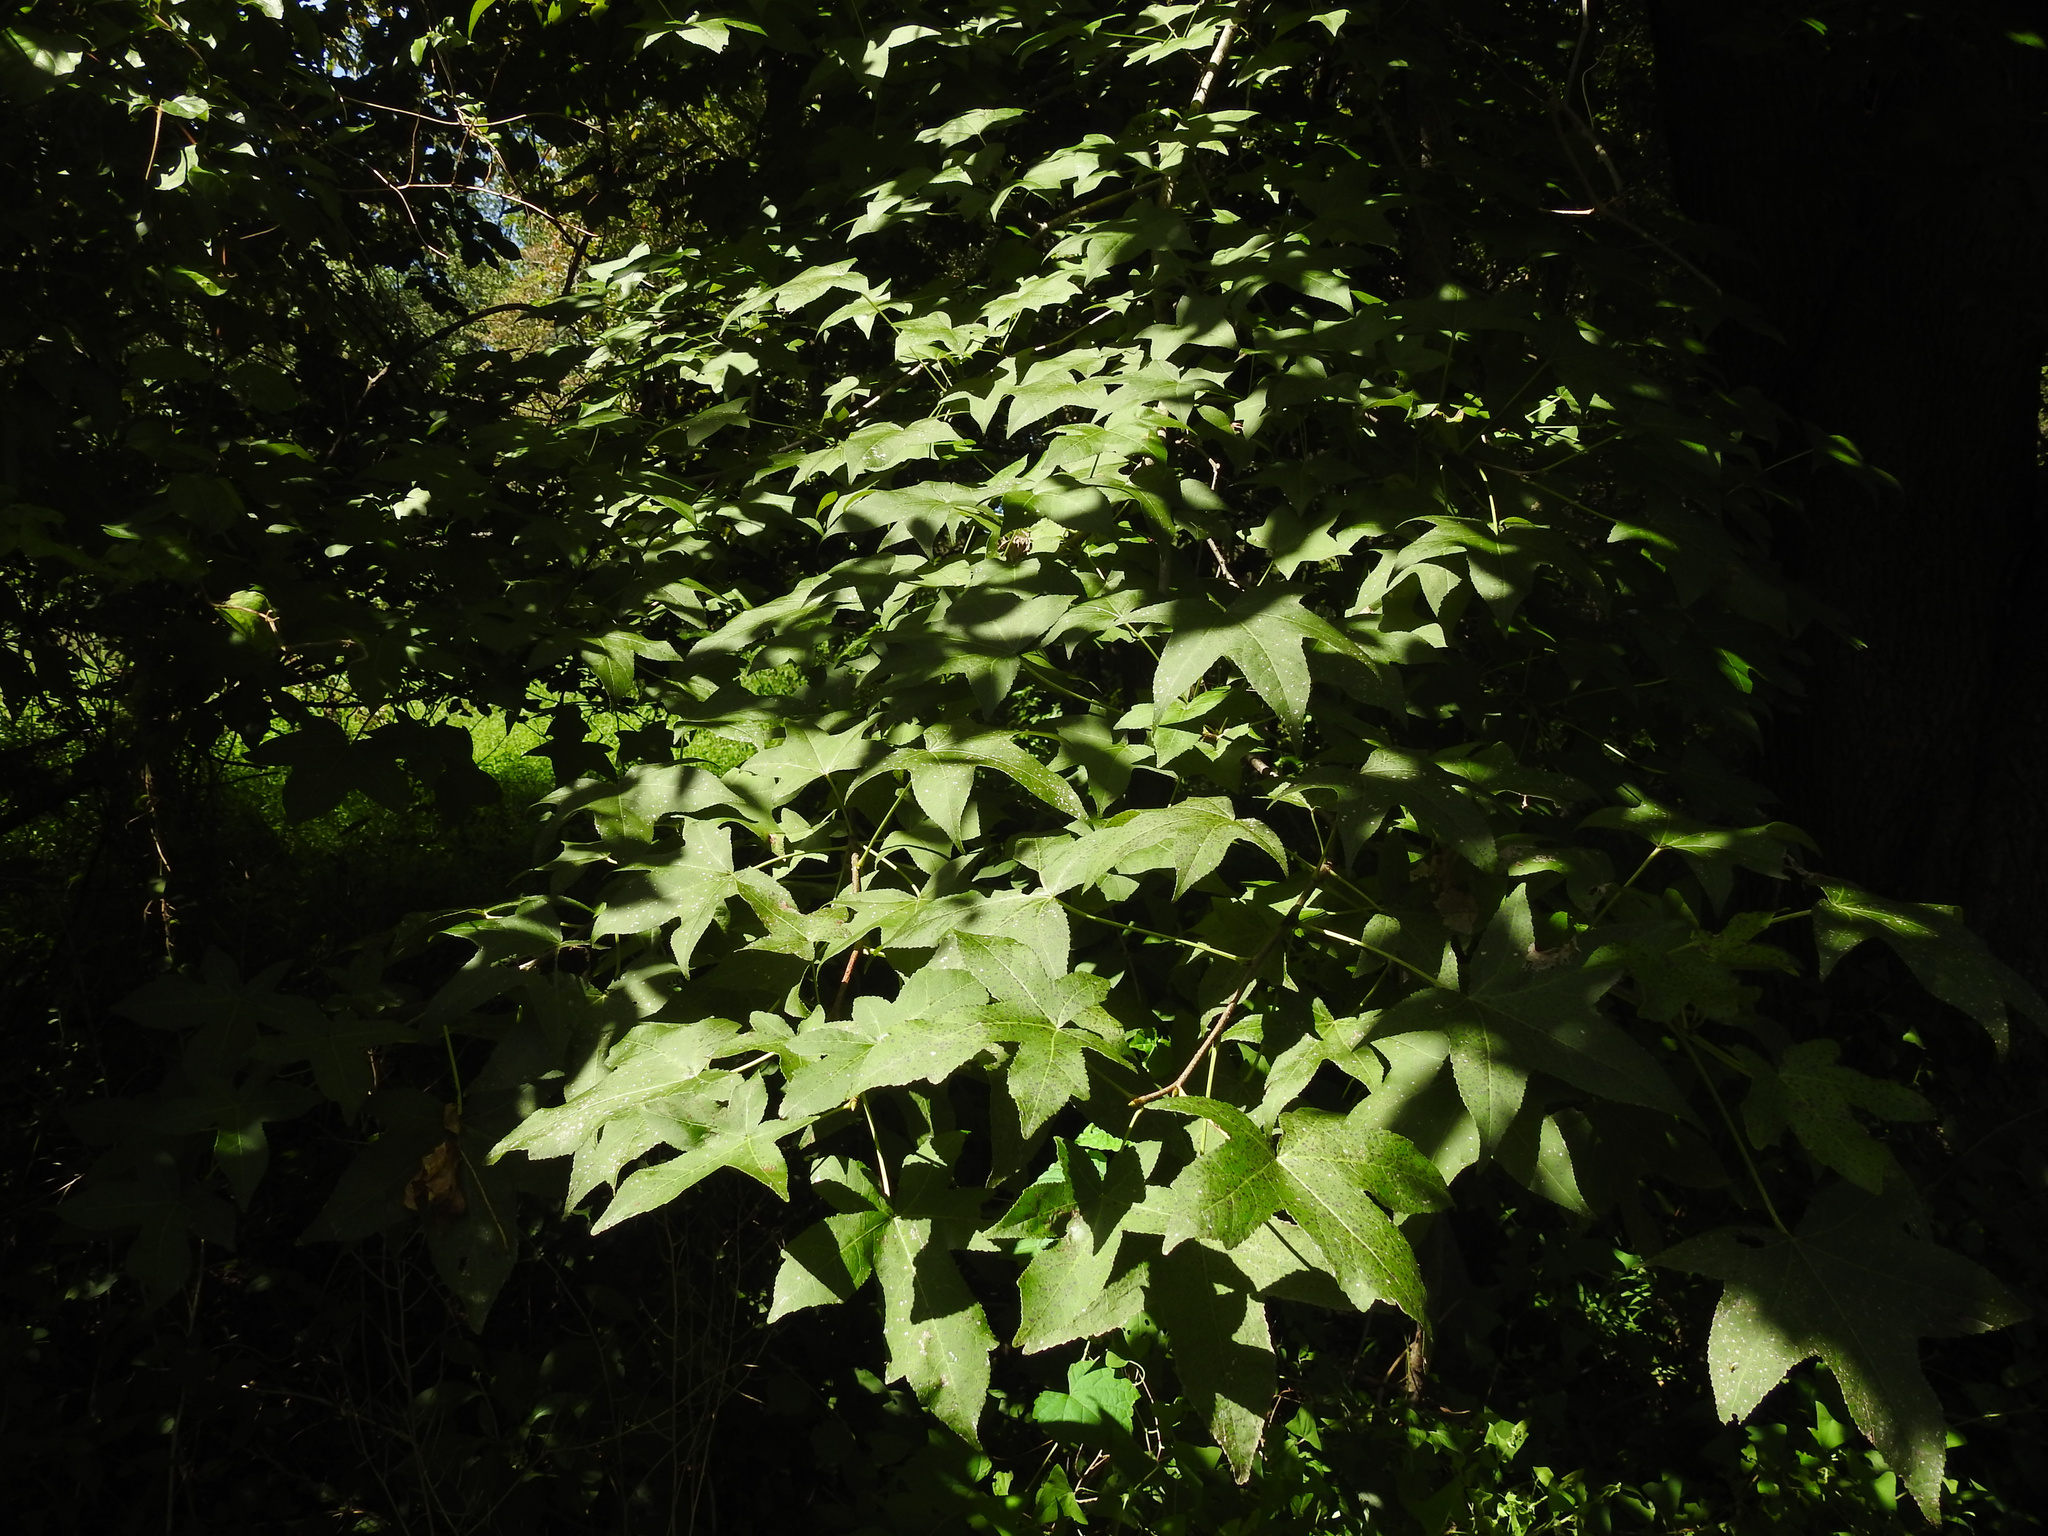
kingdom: Plantae
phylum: Tracheophyta
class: Magnoliopsida
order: Saxifragales
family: Altingiaceae
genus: Liquidambar
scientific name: Liquidambar styraciflua
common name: Sweet gum
